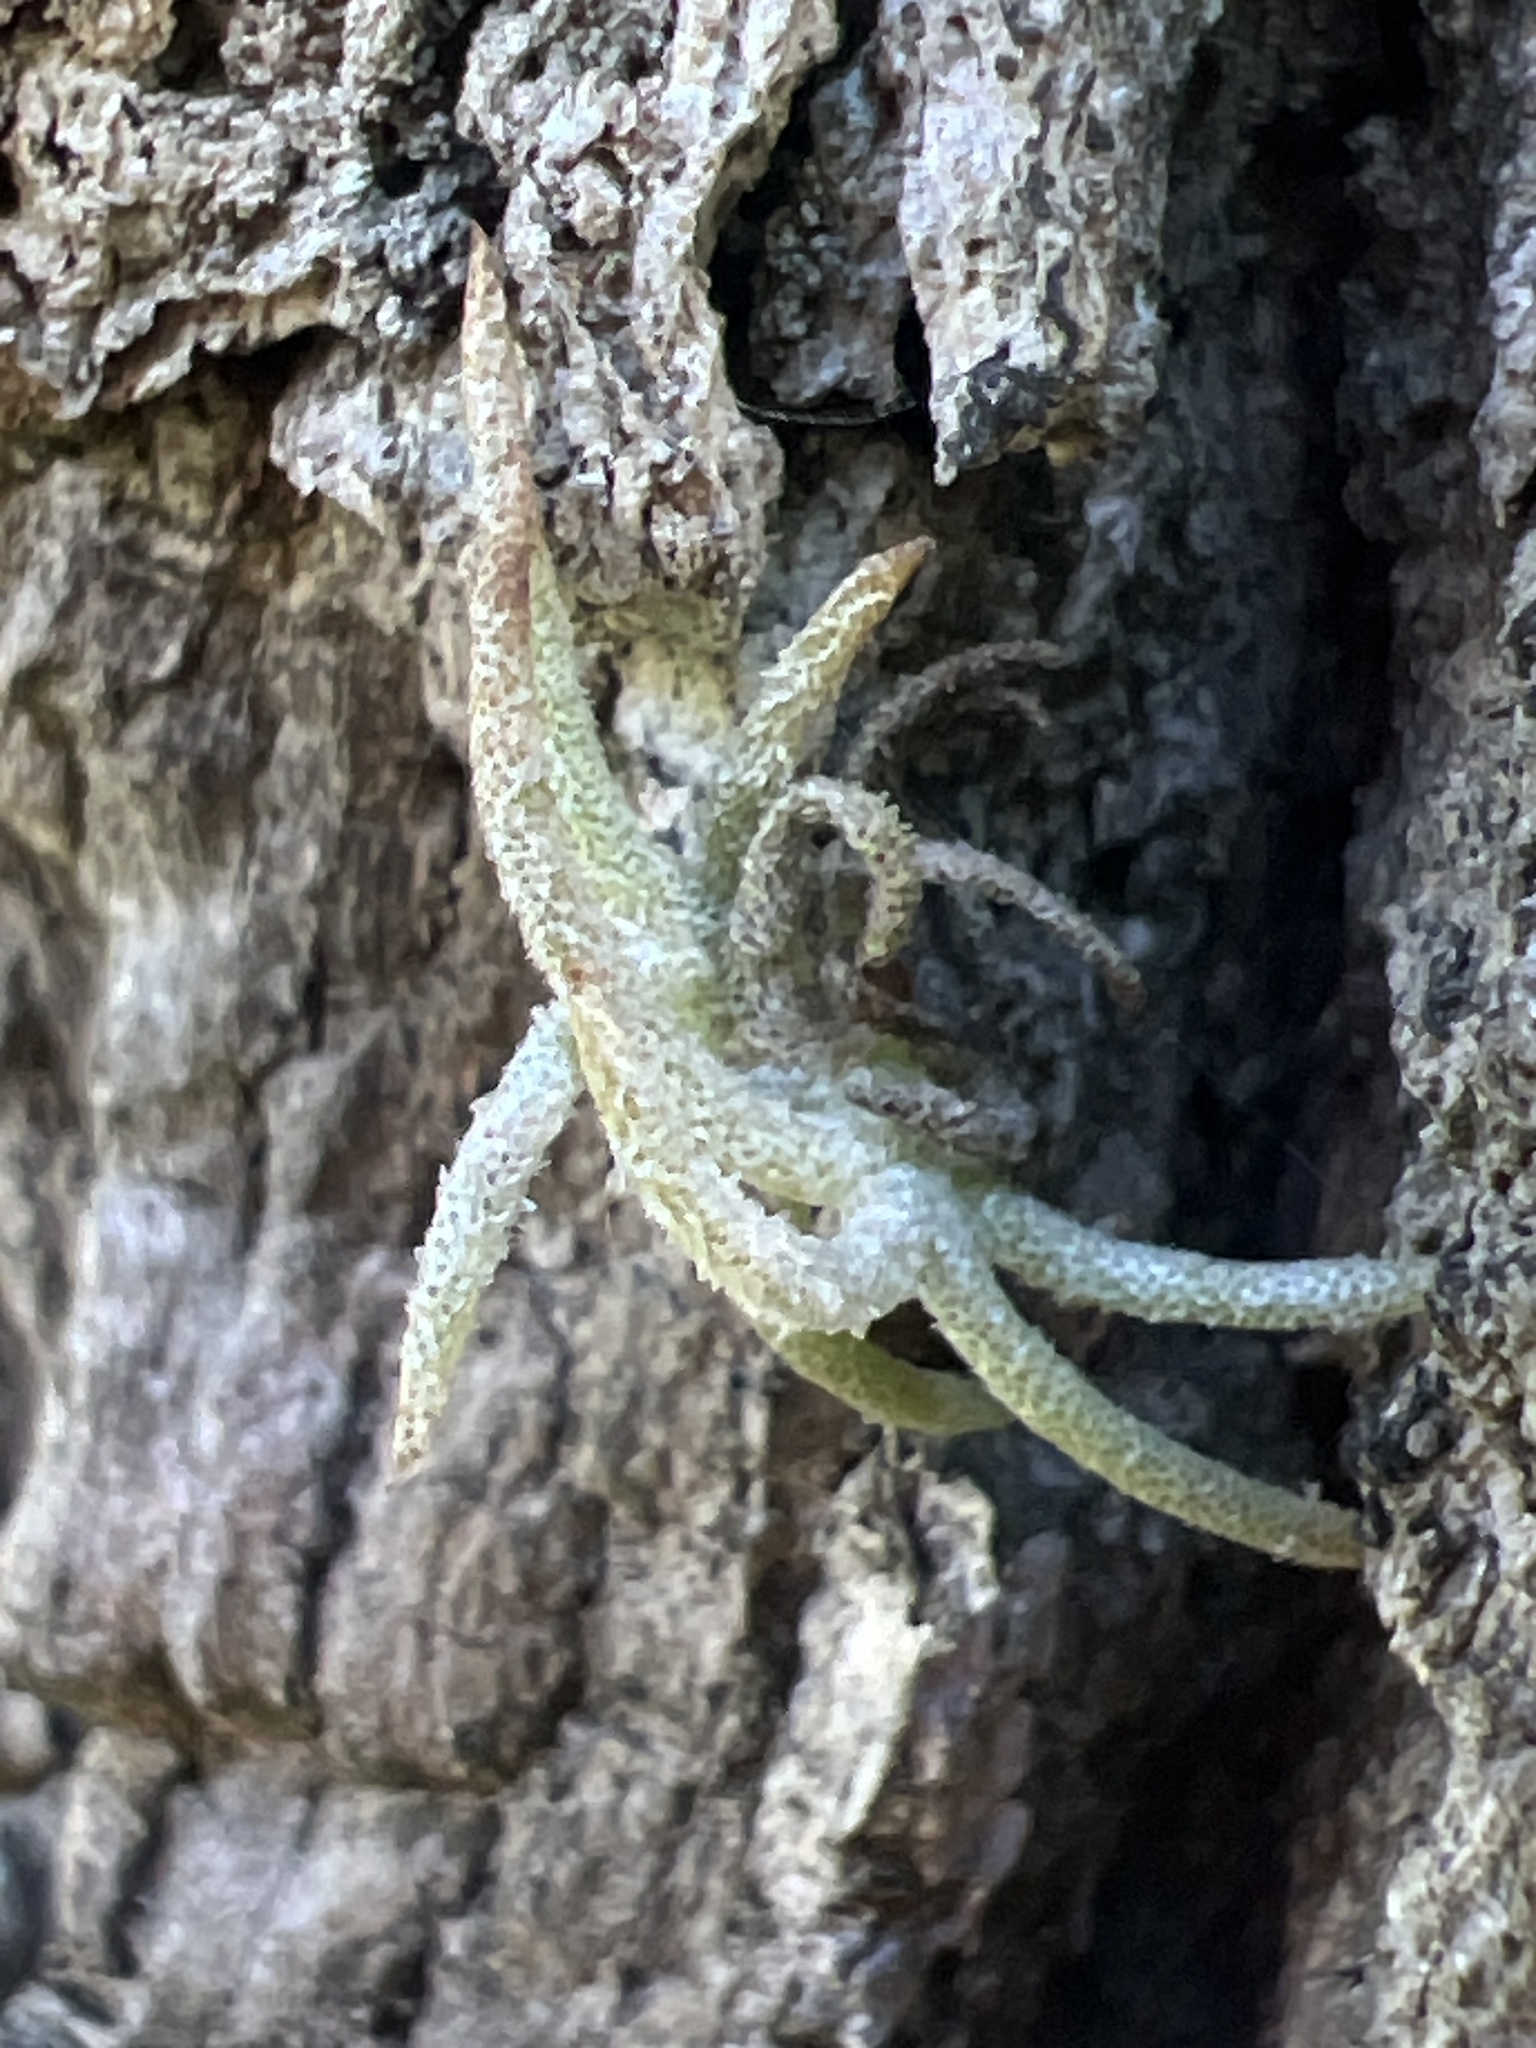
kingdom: Plantae
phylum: Tracheophyta
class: Liliopsida
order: Poales
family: Bromeliaceae
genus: Tillandsia
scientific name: Tillandsia recurvata
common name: Small ballmoss
